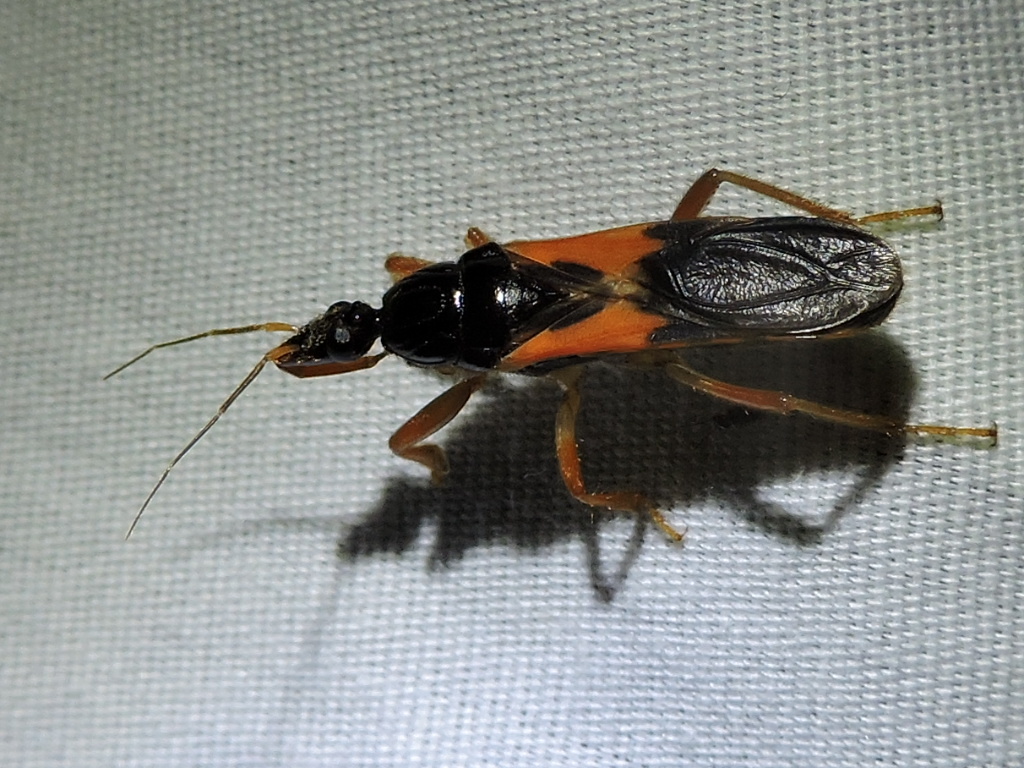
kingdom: Animalia
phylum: Arthropoda
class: Insecta
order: Hemiptera
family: Reduviidae
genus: Sirthenea
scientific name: Sirthenea stria
